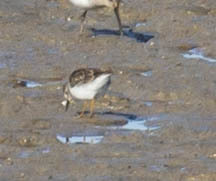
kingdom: Animalia
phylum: Chordata
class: Aves
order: Charadriiformes
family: Scolopacidae
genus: Calidris
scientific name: Calidris minutilla
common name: Least sandpiper
